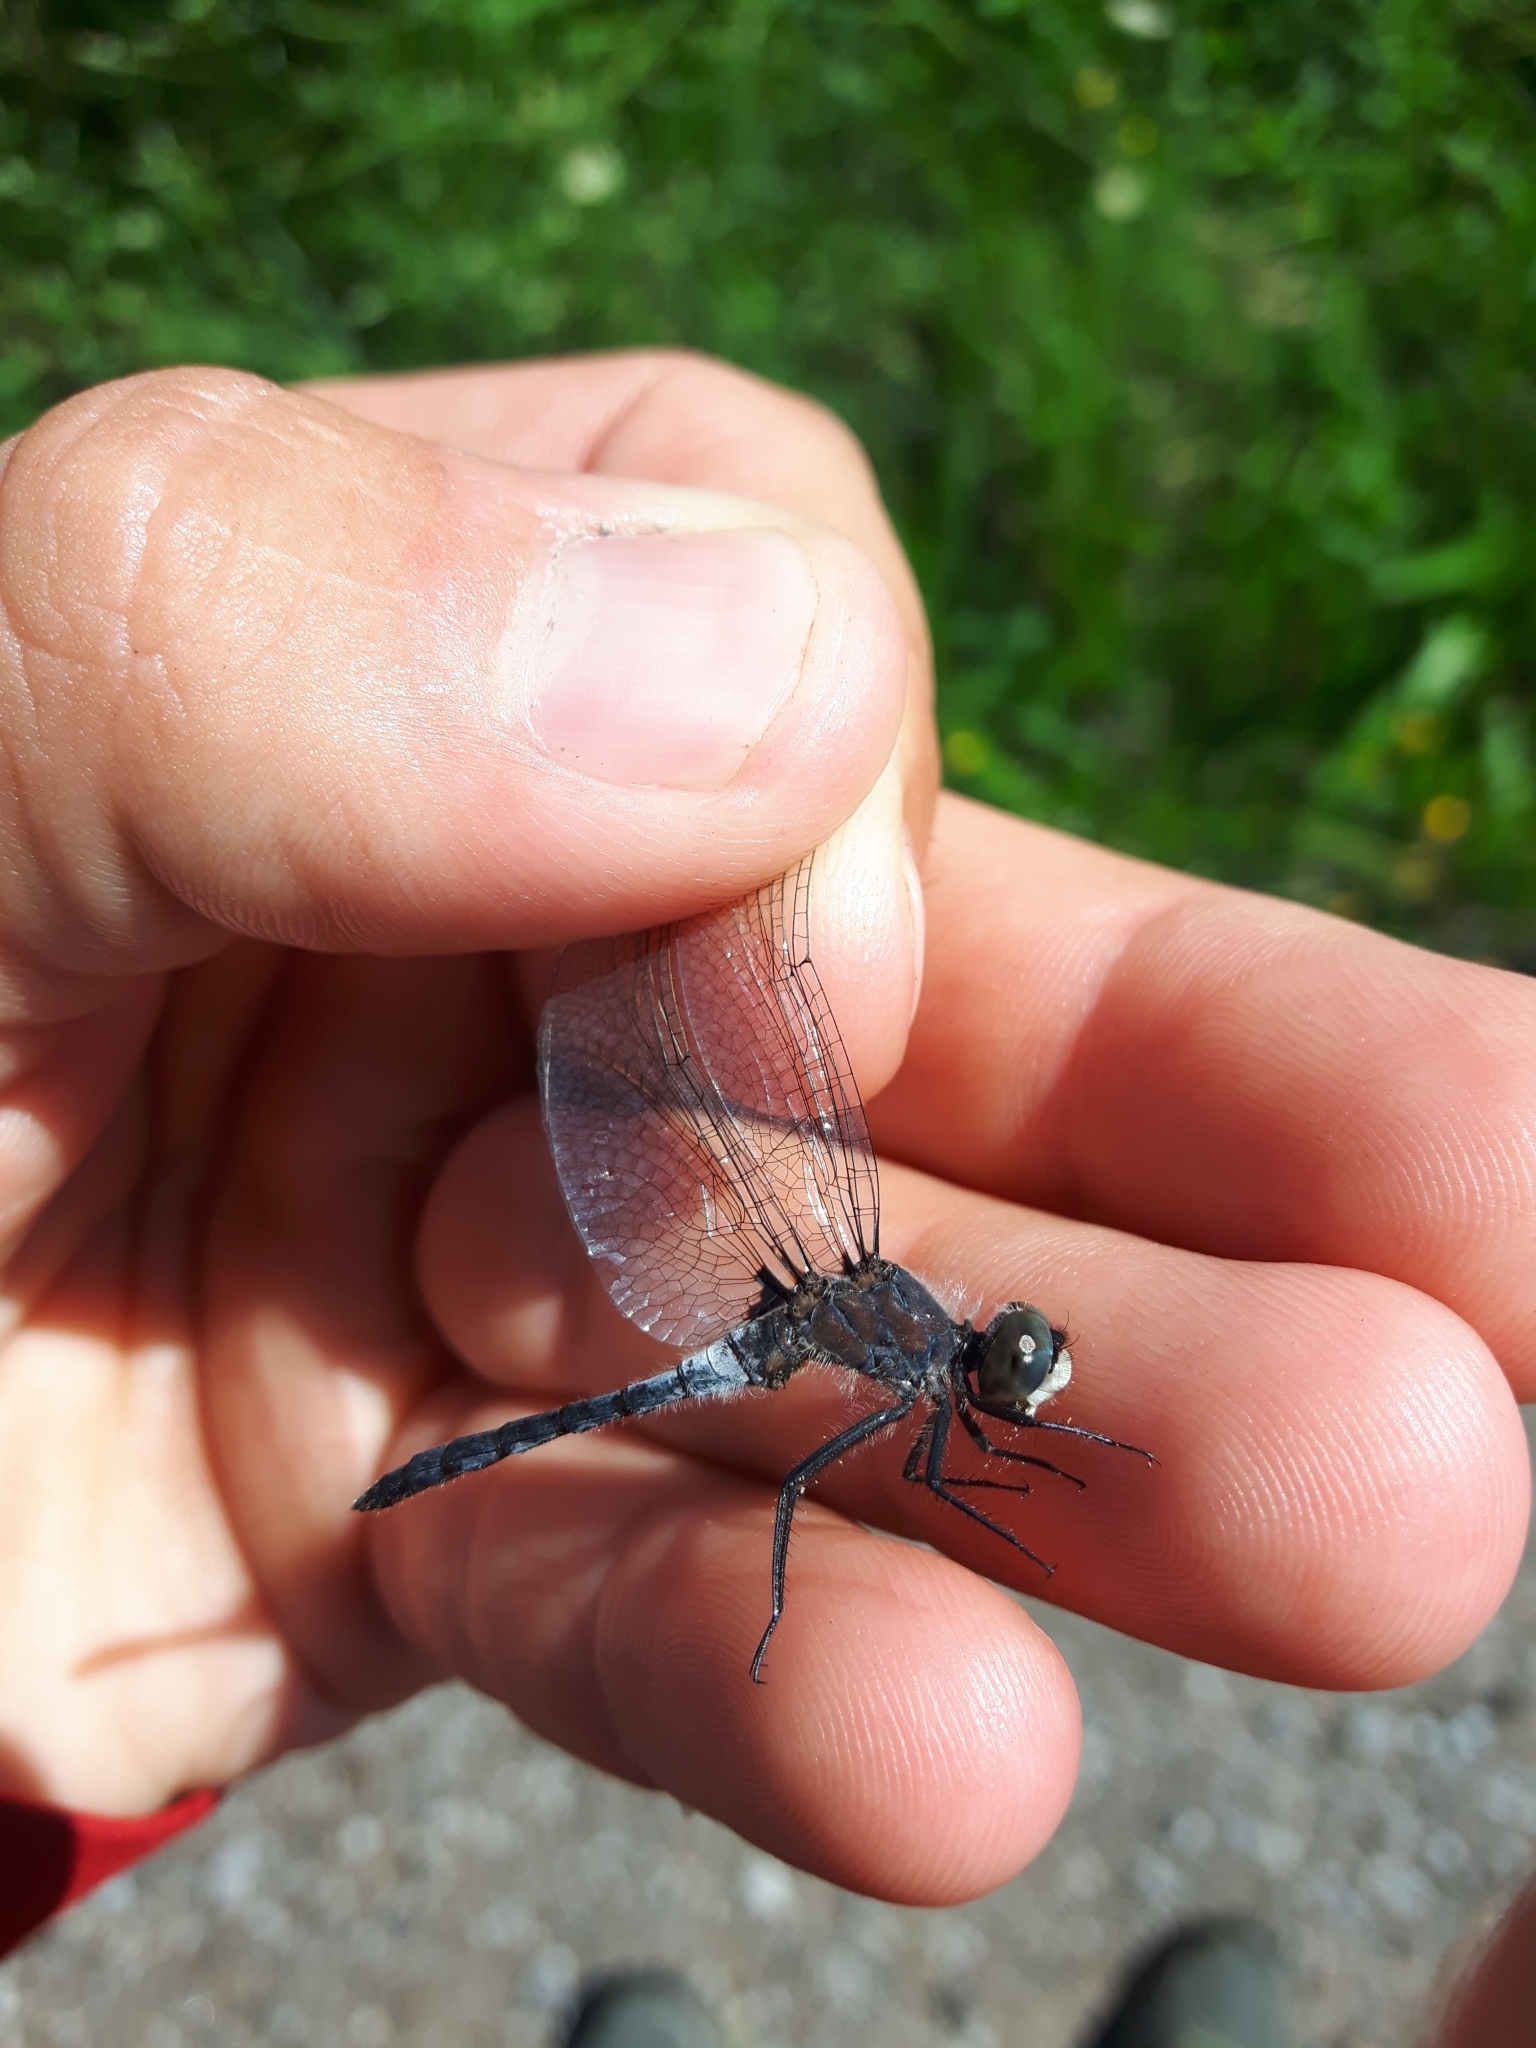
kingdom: Animalia
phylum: Arthropoda
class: Insecta
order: Odonata
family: Libellulidae
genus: Leucorrhinia
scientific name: Leucorrhinia frigida
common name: Frosted whiteface
